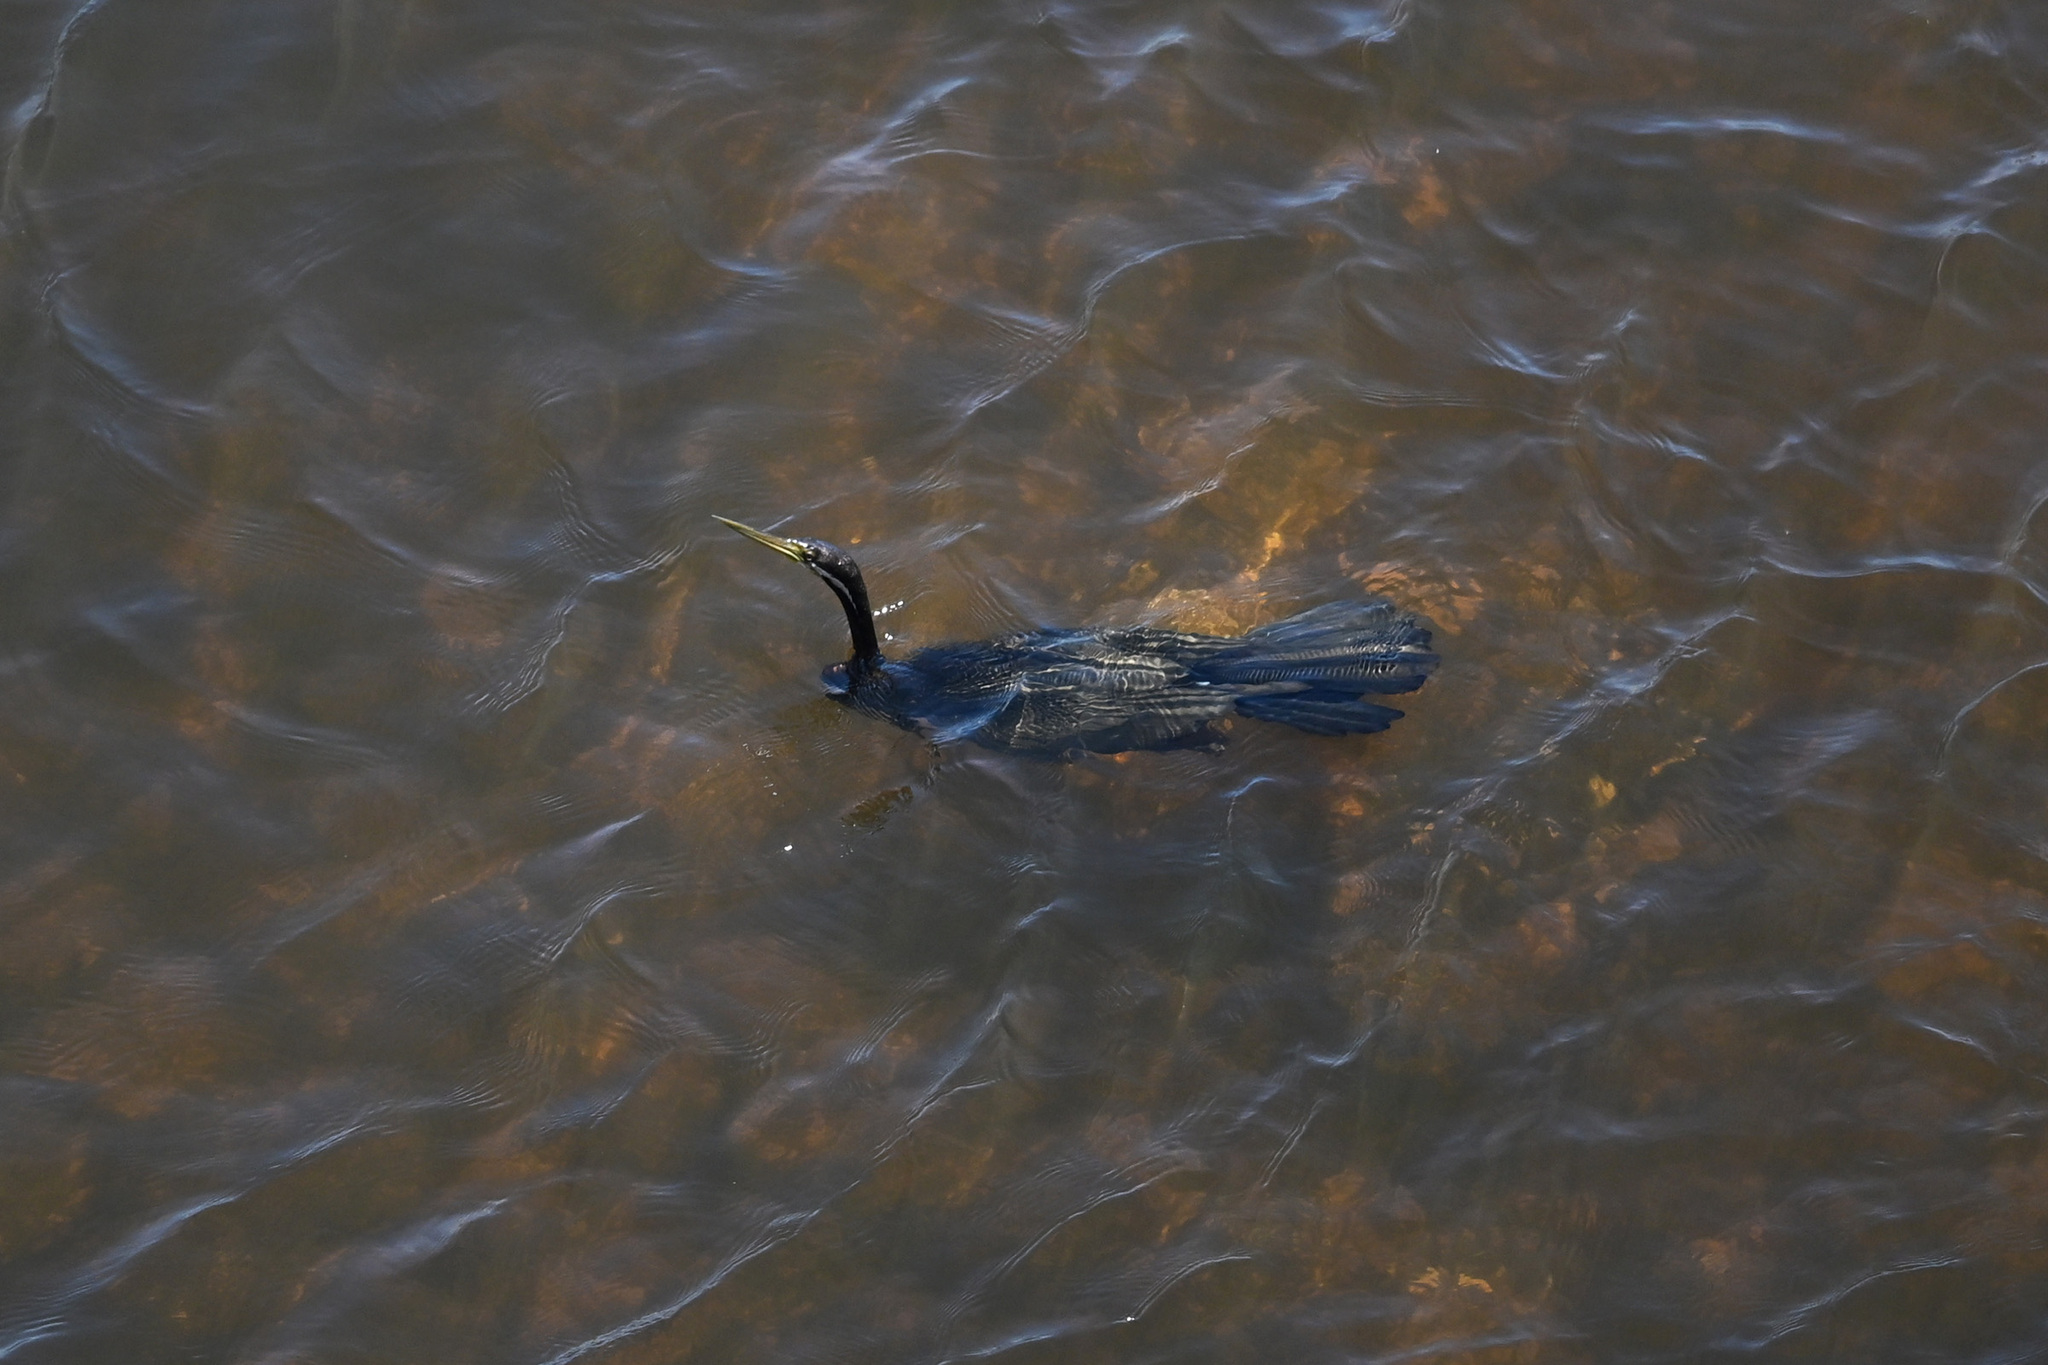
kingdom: Animalia
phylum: Chordata
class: Aves
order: Suliformes
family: Anhingidae
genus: Anhinga
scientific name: Anhinga novaehollandiae
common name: Australasian darter
